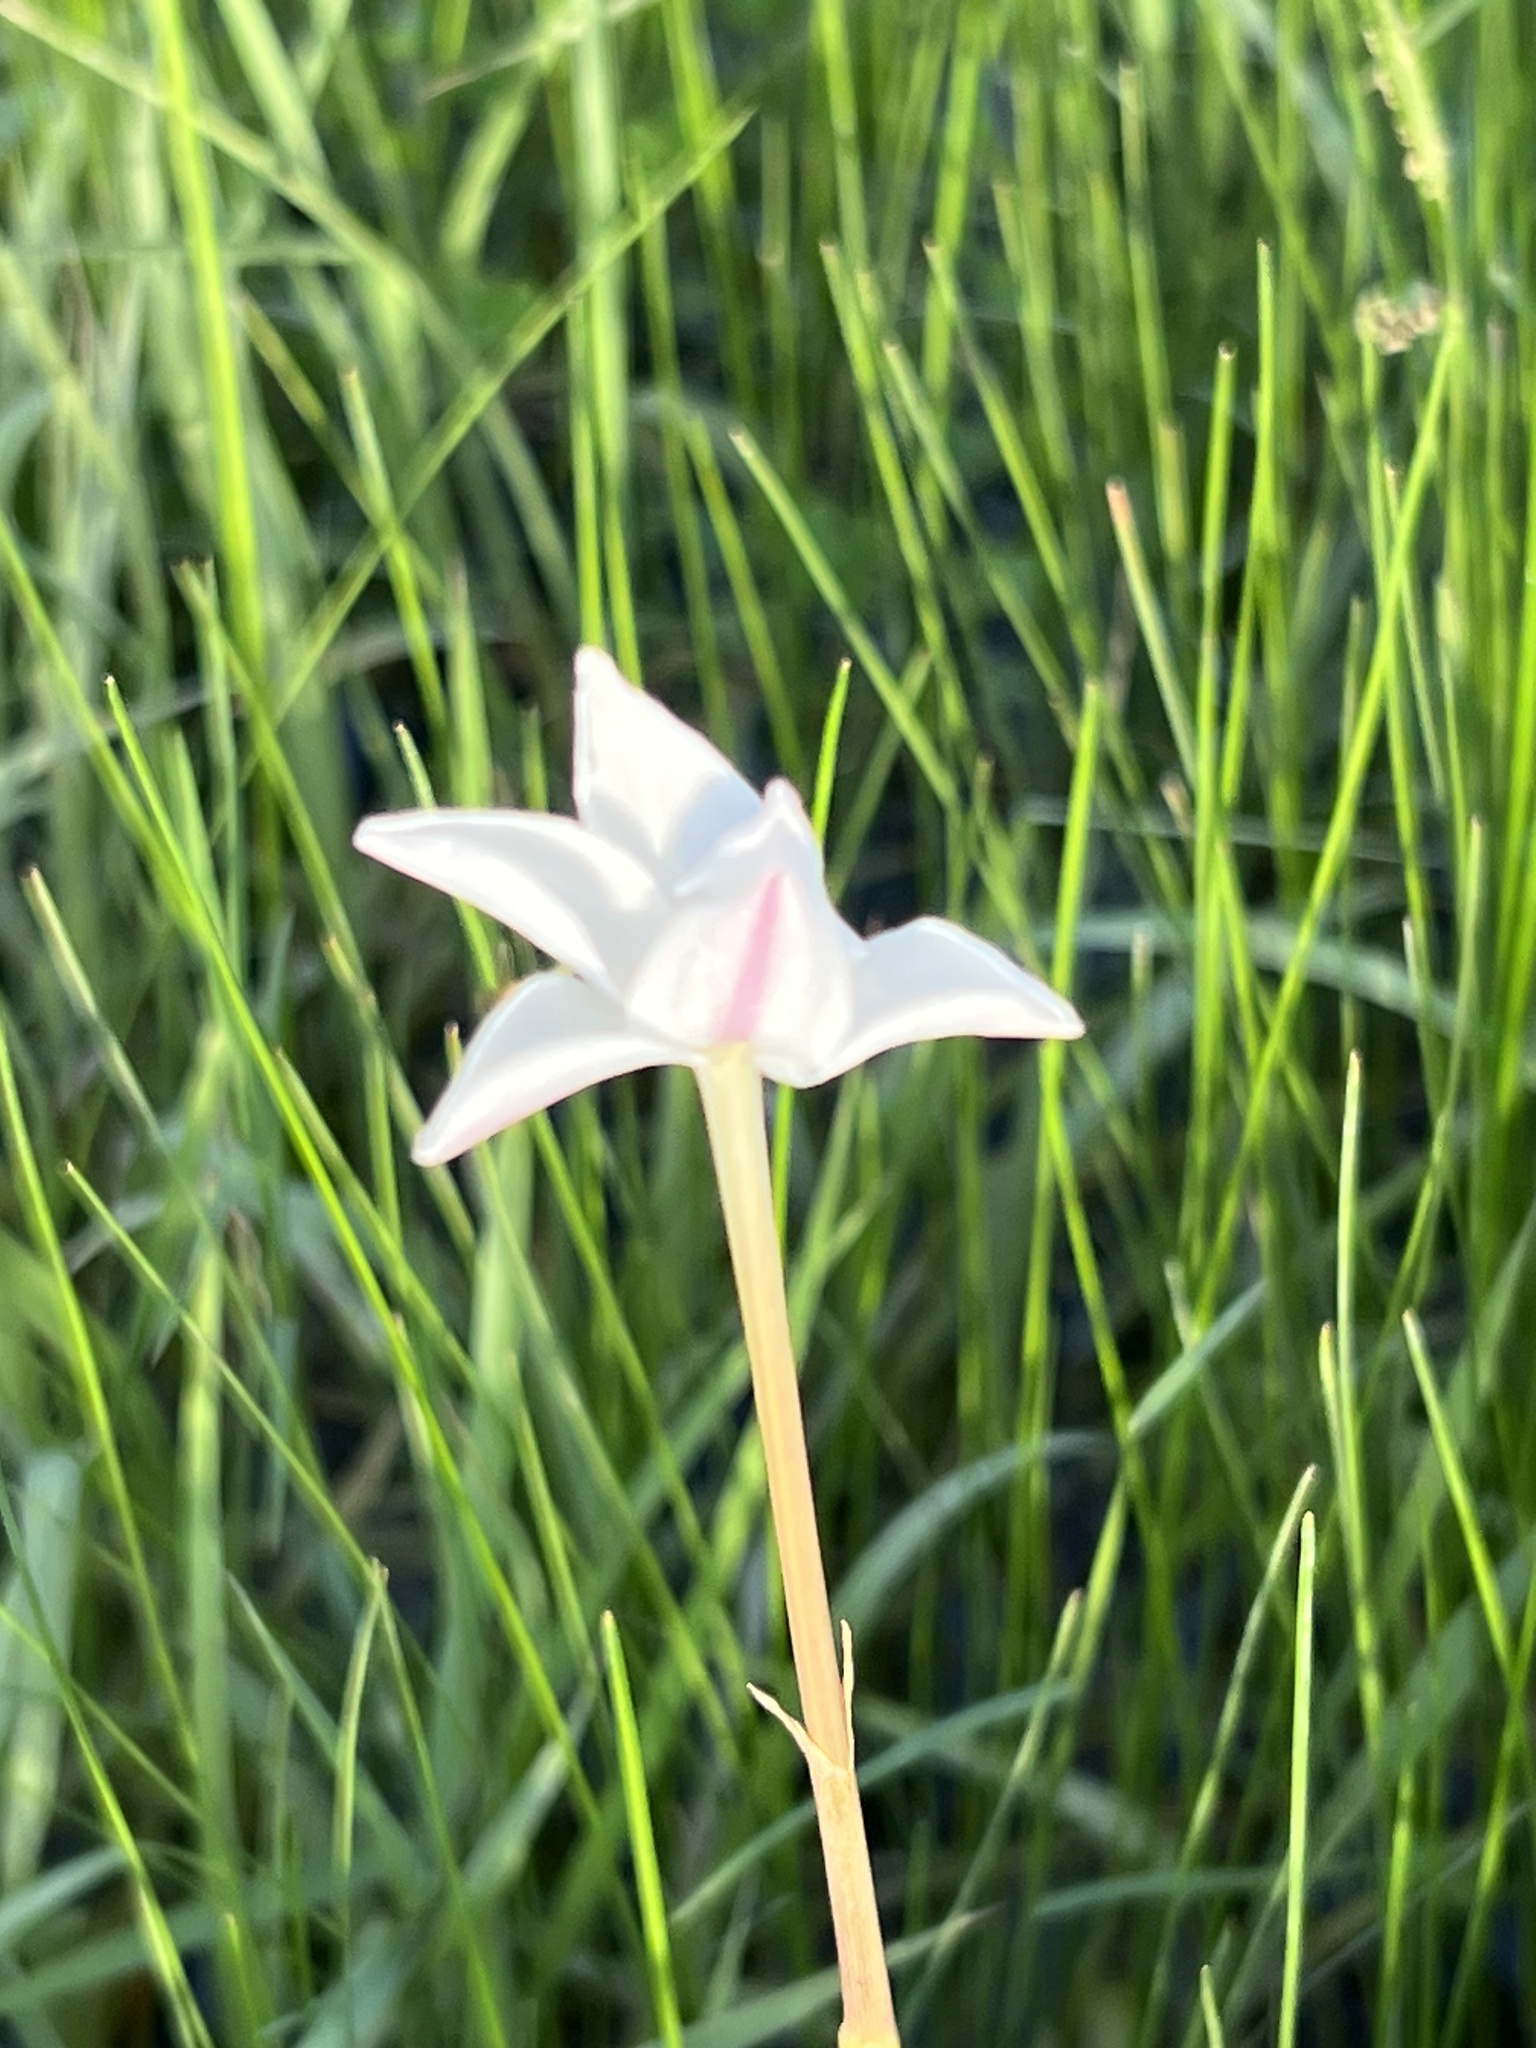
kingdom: Plantae
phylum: Tracheophyta
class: Liliopsida
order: Asparagales
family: Amaryllidaceae
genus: Zephyranthes
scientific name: Zephyranthes chlorosolen
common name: Evening rain-lily
